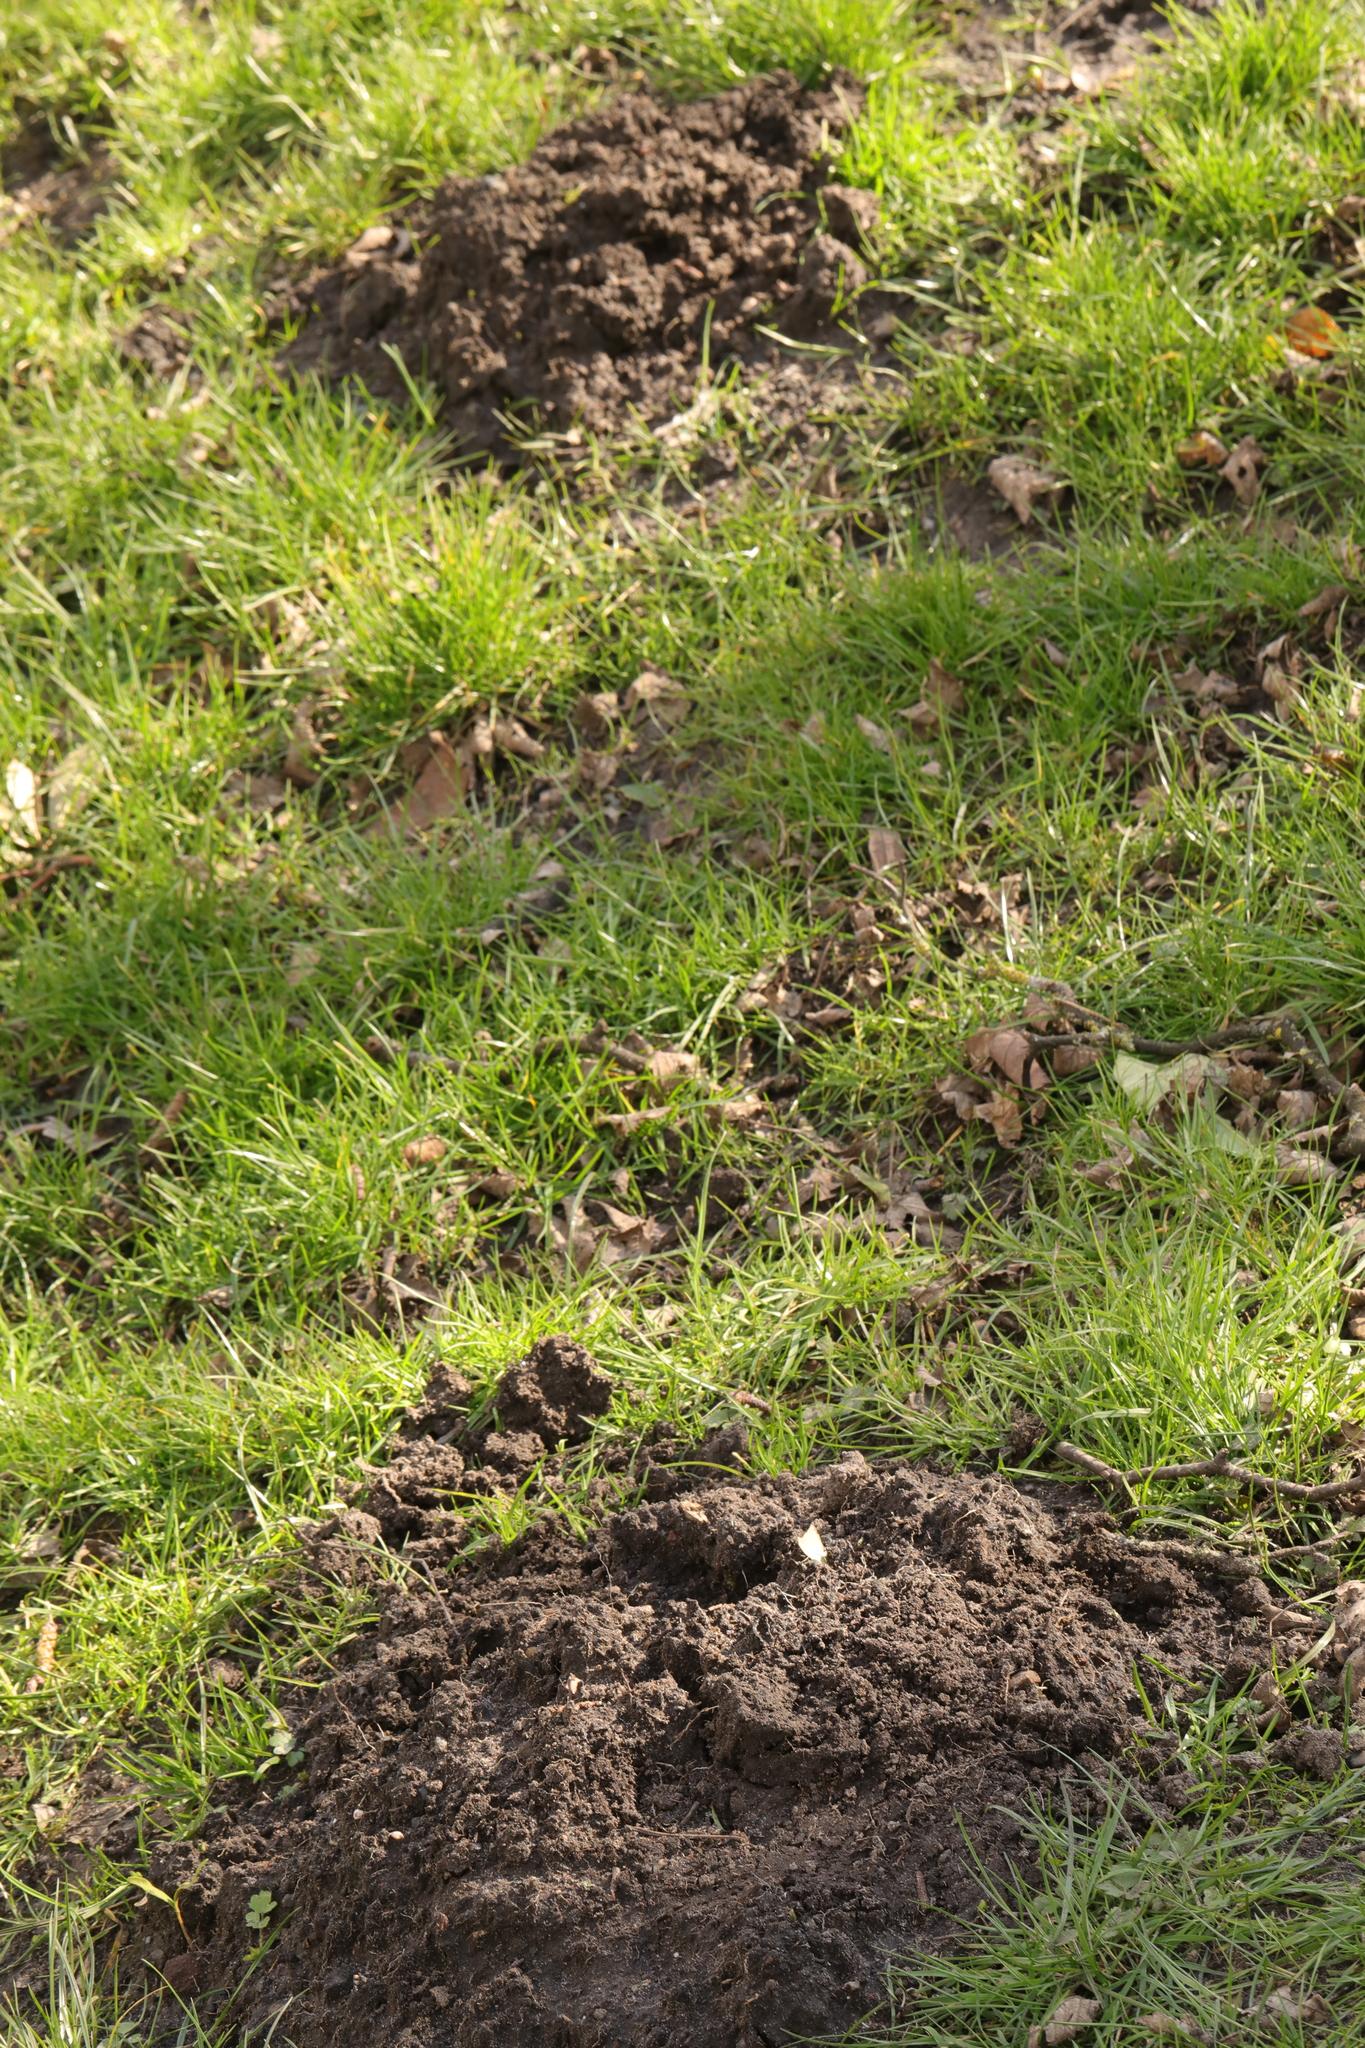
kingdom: Animalia
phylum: Chordata
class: Mammalia
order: Soricomorpha
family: Talpidae
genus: Talpa
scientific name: Talpa europaea
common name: European mole
